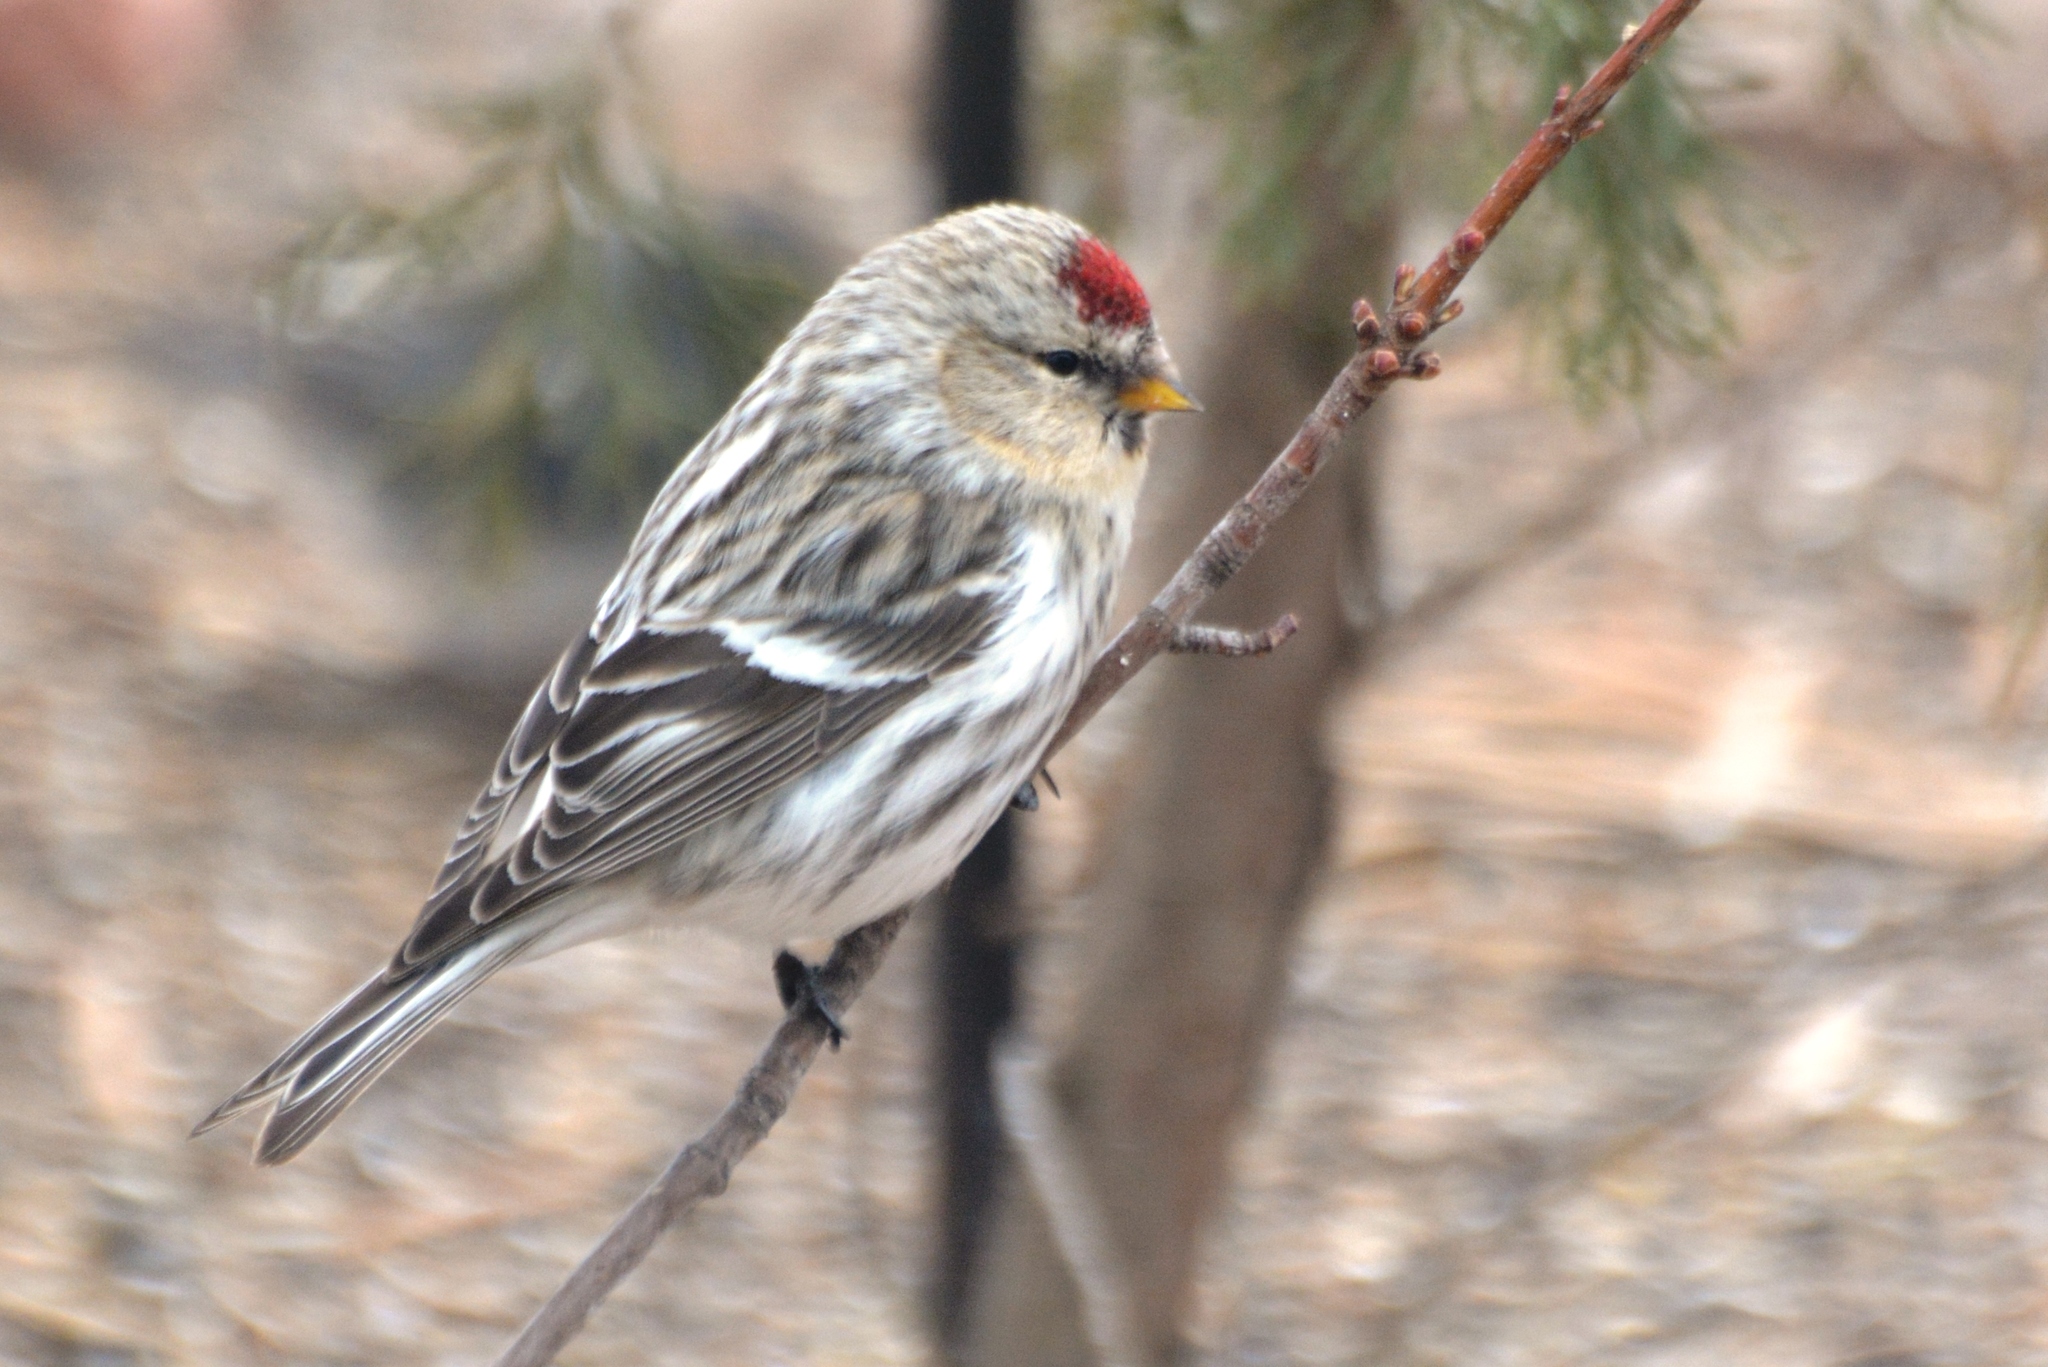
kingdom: Animalia
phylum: Chordata
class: Aves
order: Passeriformes
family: Fringillidae
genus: Acanthis
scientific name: Acanthis hornemanni
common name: Arctic redpoll
